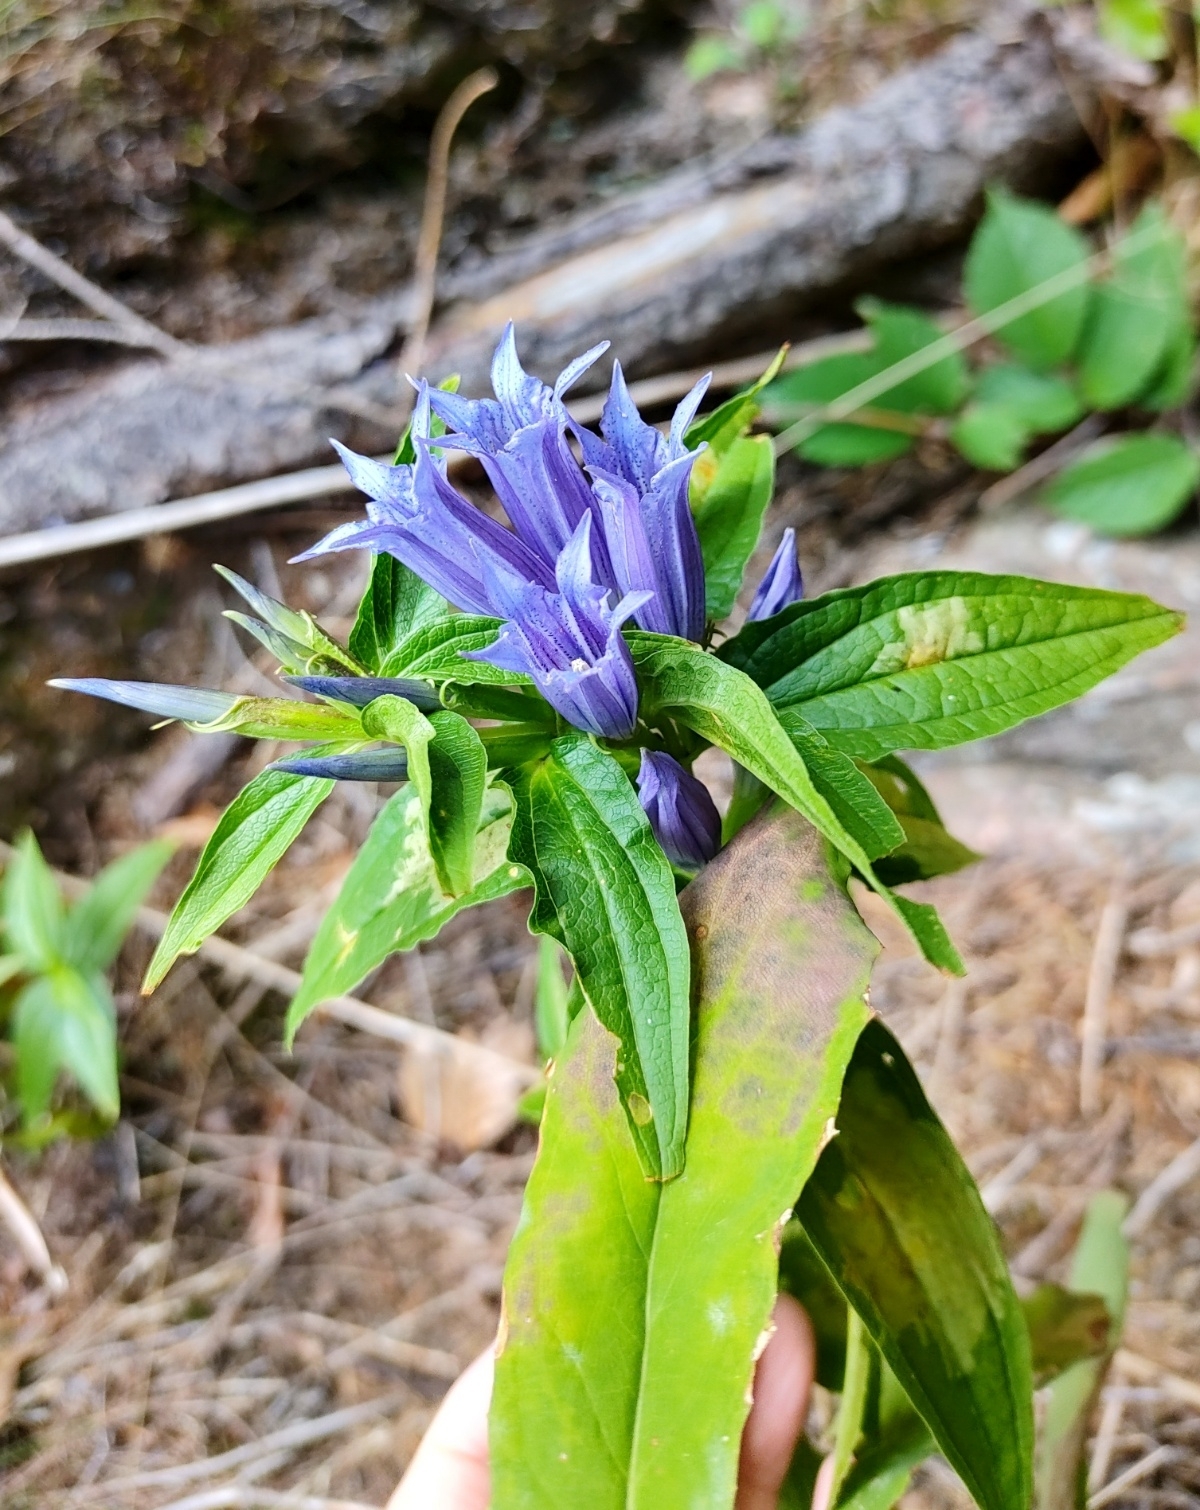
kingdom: Plantae
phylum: Tracheophyta
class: Magnoliopsida
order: Gentianales
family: Gentianaceae
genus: Gentiana
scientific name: Gentiana asclepiadea
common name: Willow gentian
